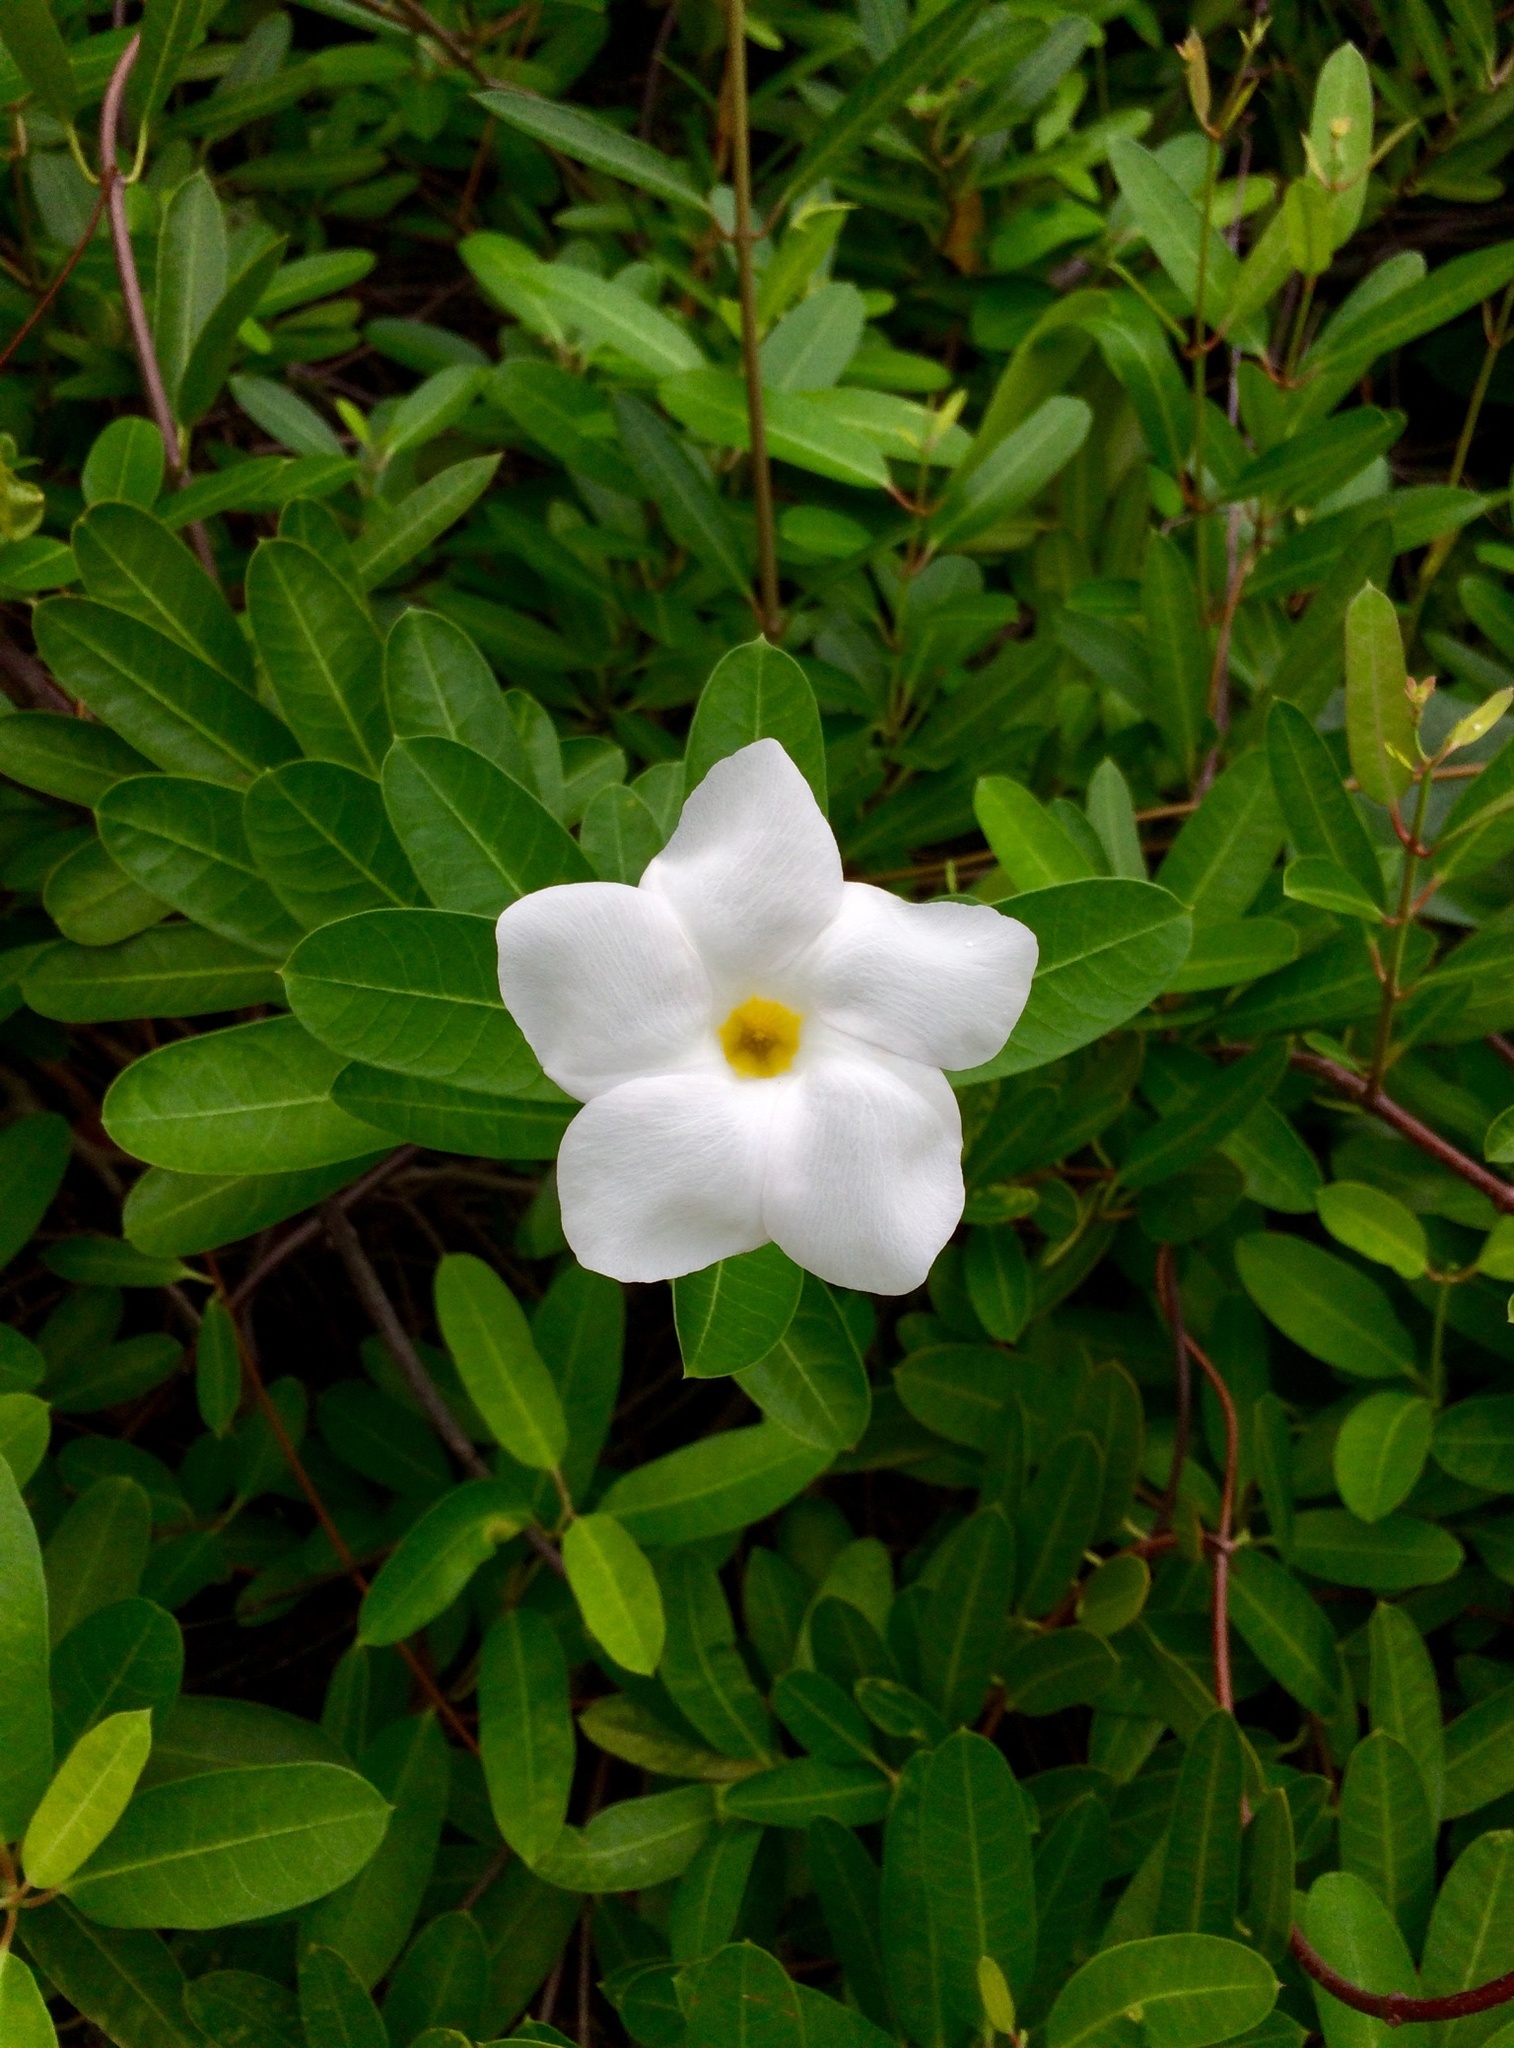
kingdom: Plantae
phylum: Tracheophyta
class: Magnoliopsida
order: Gentianales
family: Apocynaceae
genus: Rhabdadenia
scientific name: Rhabdadenia biflora
